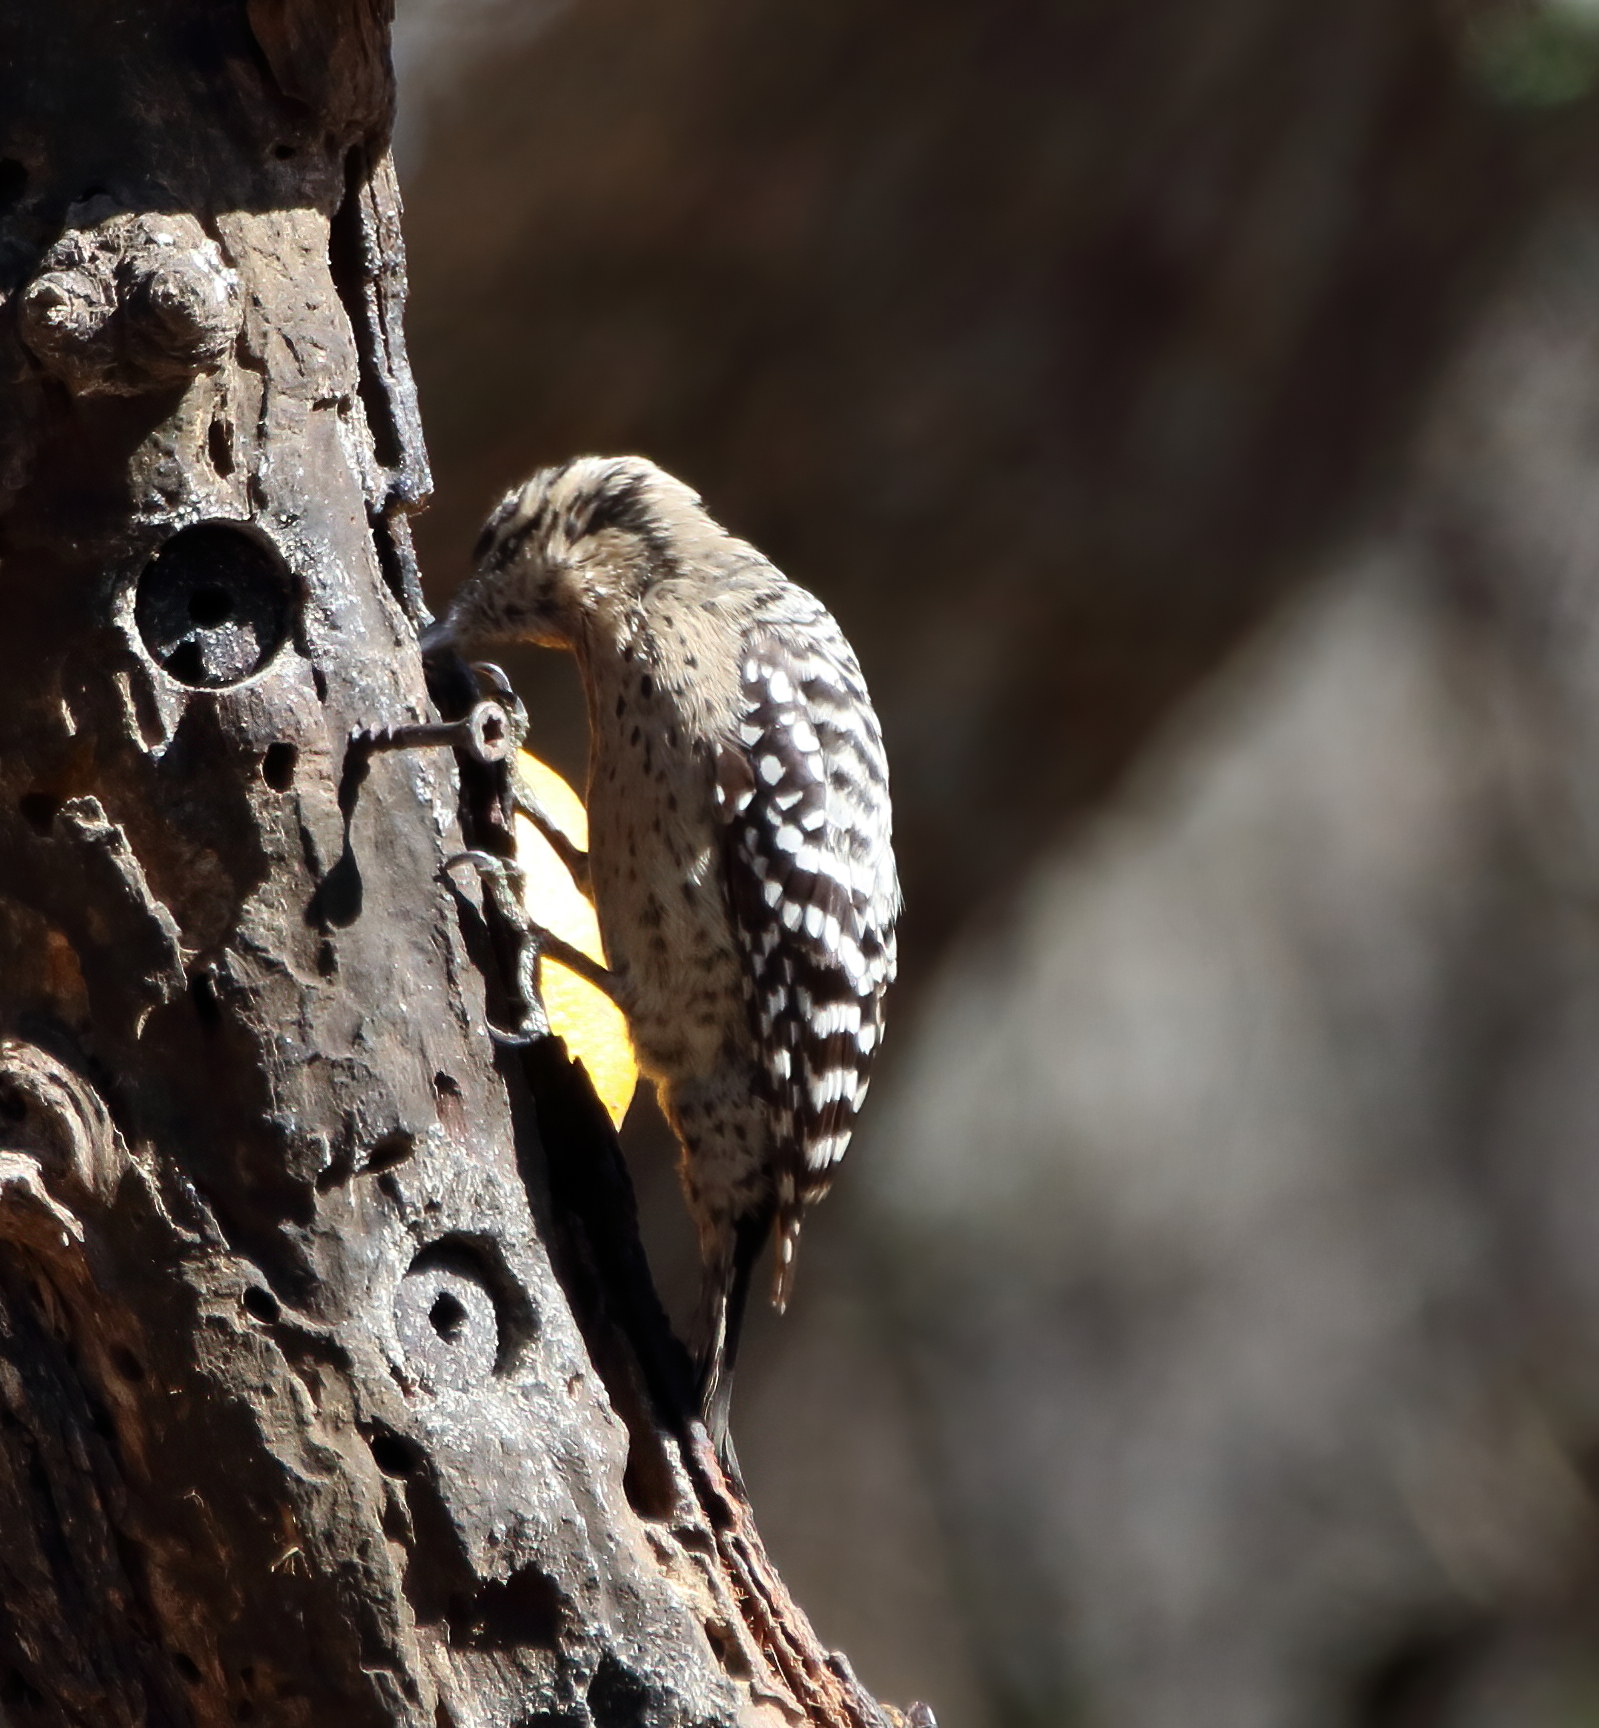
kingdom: Animalia
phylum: Chordata
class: Aves
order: Piciformes
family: Picidae
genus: Dryobates
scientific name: Dryobates scalaris
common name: Ladder-backed woodpecker
